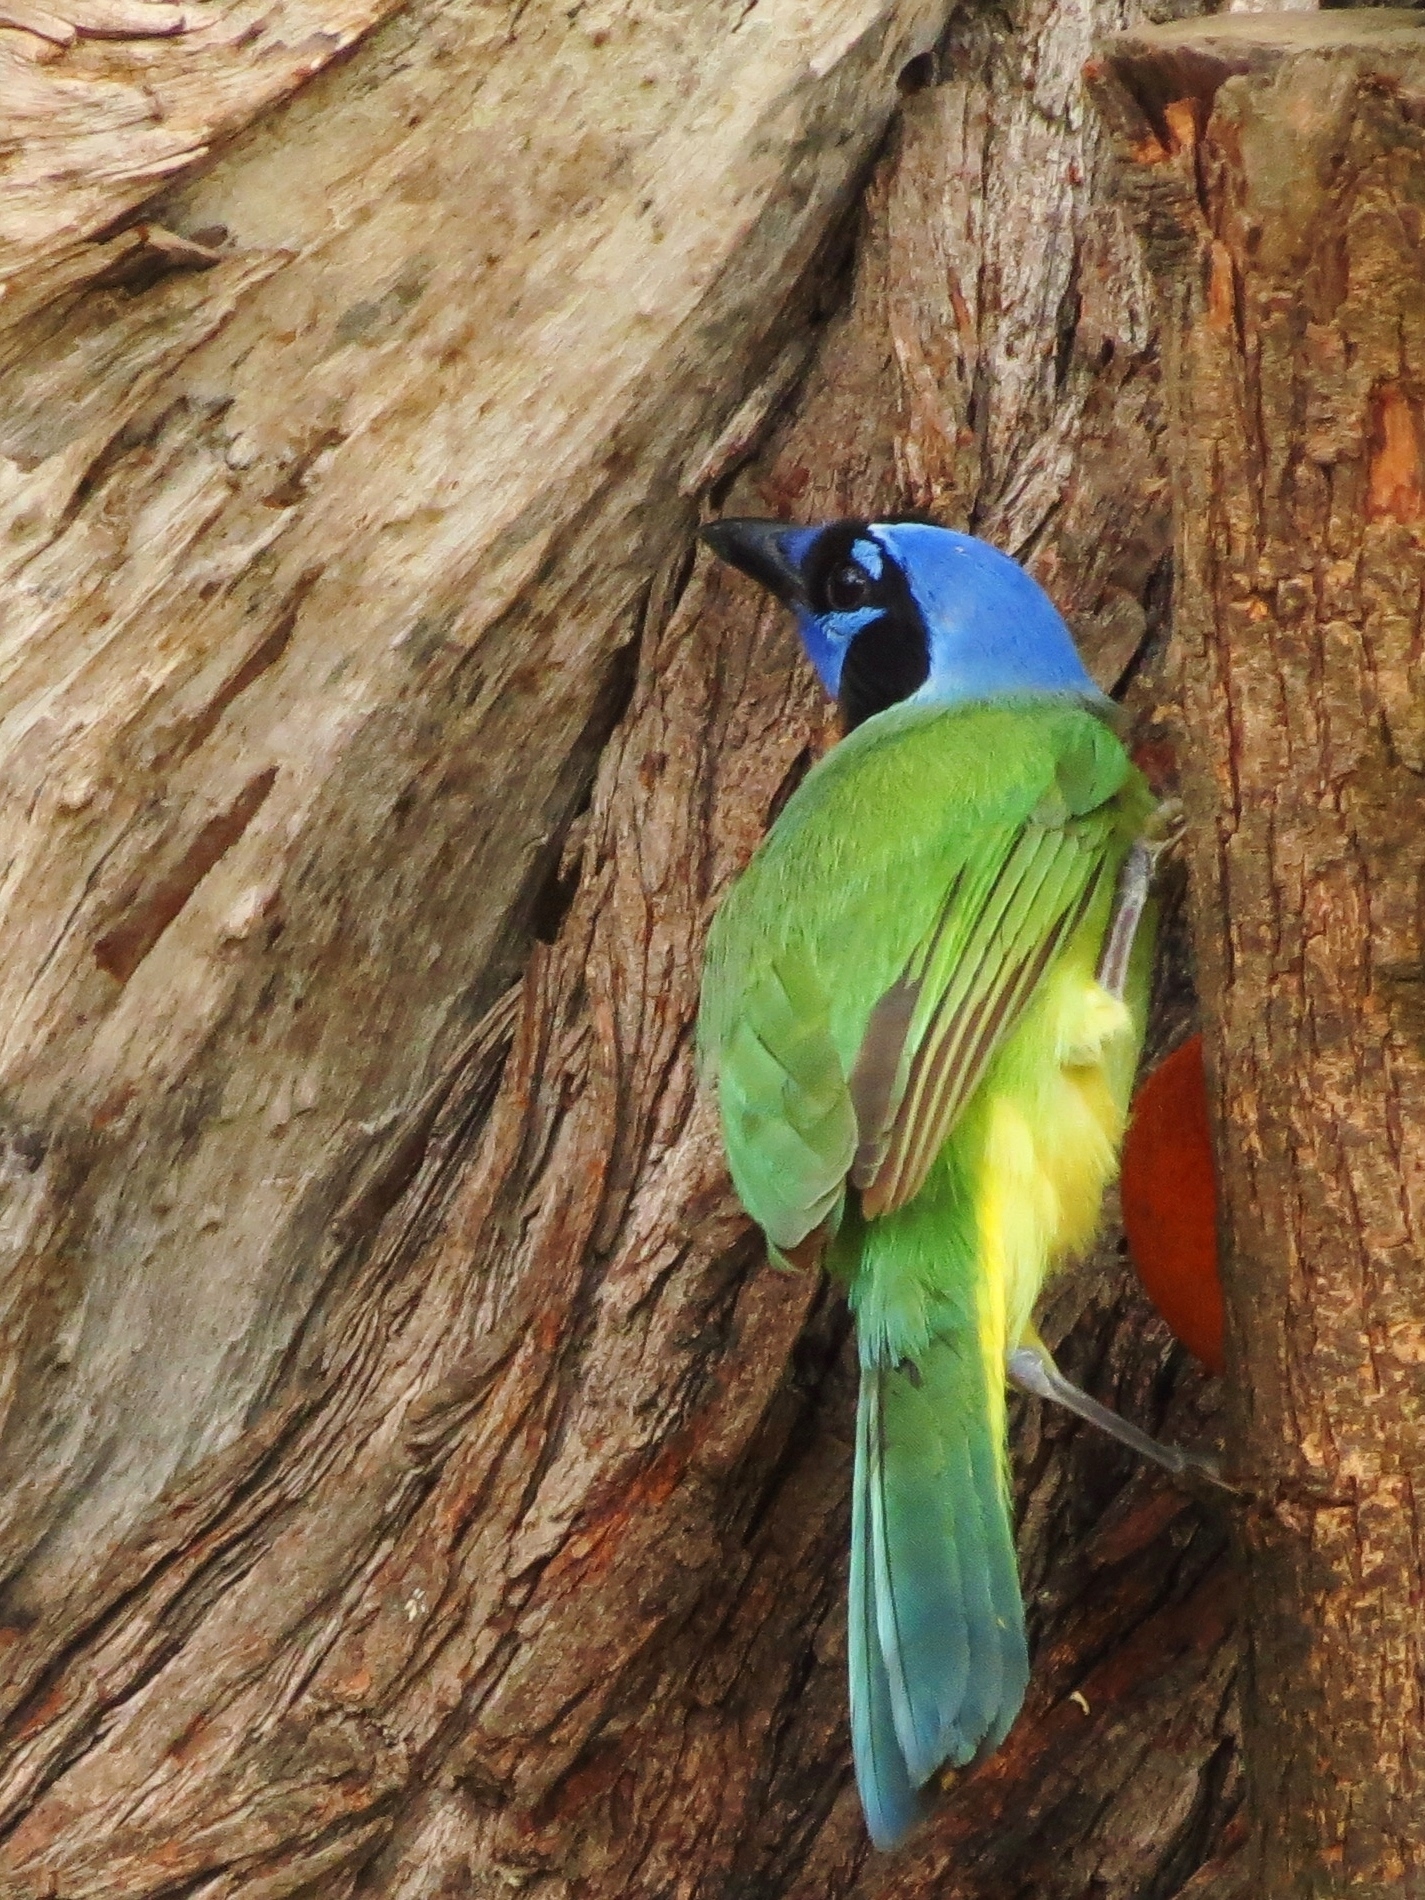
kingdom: Animalia
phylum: Chordata
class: Aves
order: Passeriformes
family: Corvidae
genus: Cyanocorax
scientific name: Cyanocorax yncas
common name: Green jay
